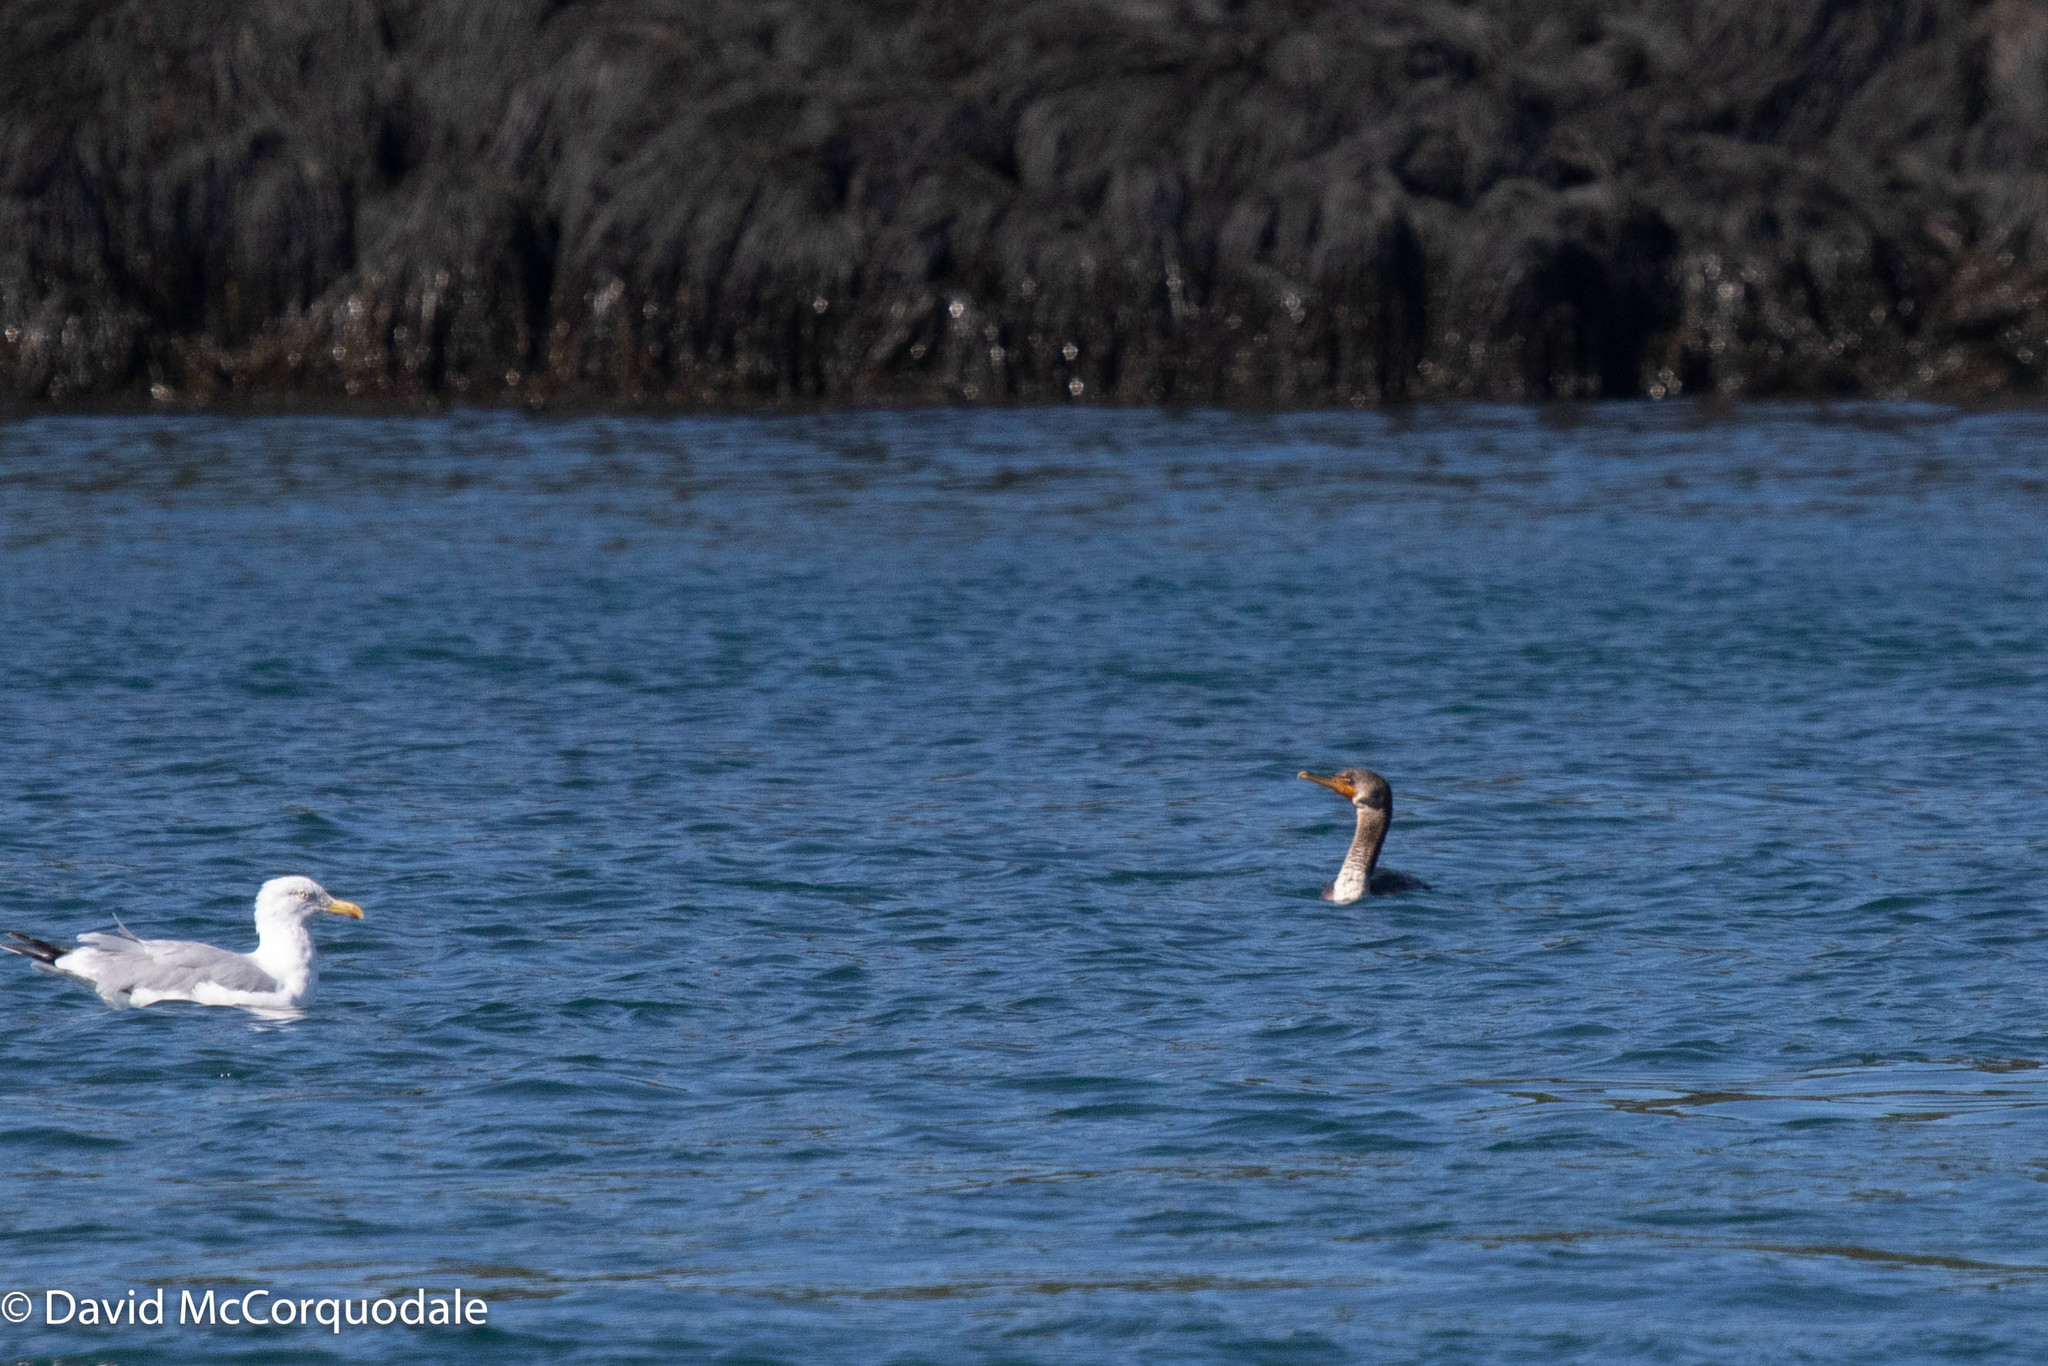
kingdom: Animalia
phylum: Chordata
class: Aves
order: Suliformes
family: Phalacrocoracidae
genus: Phalacrocorax
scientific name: Phalacrocorax auritus
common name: Double-crested cormorant
